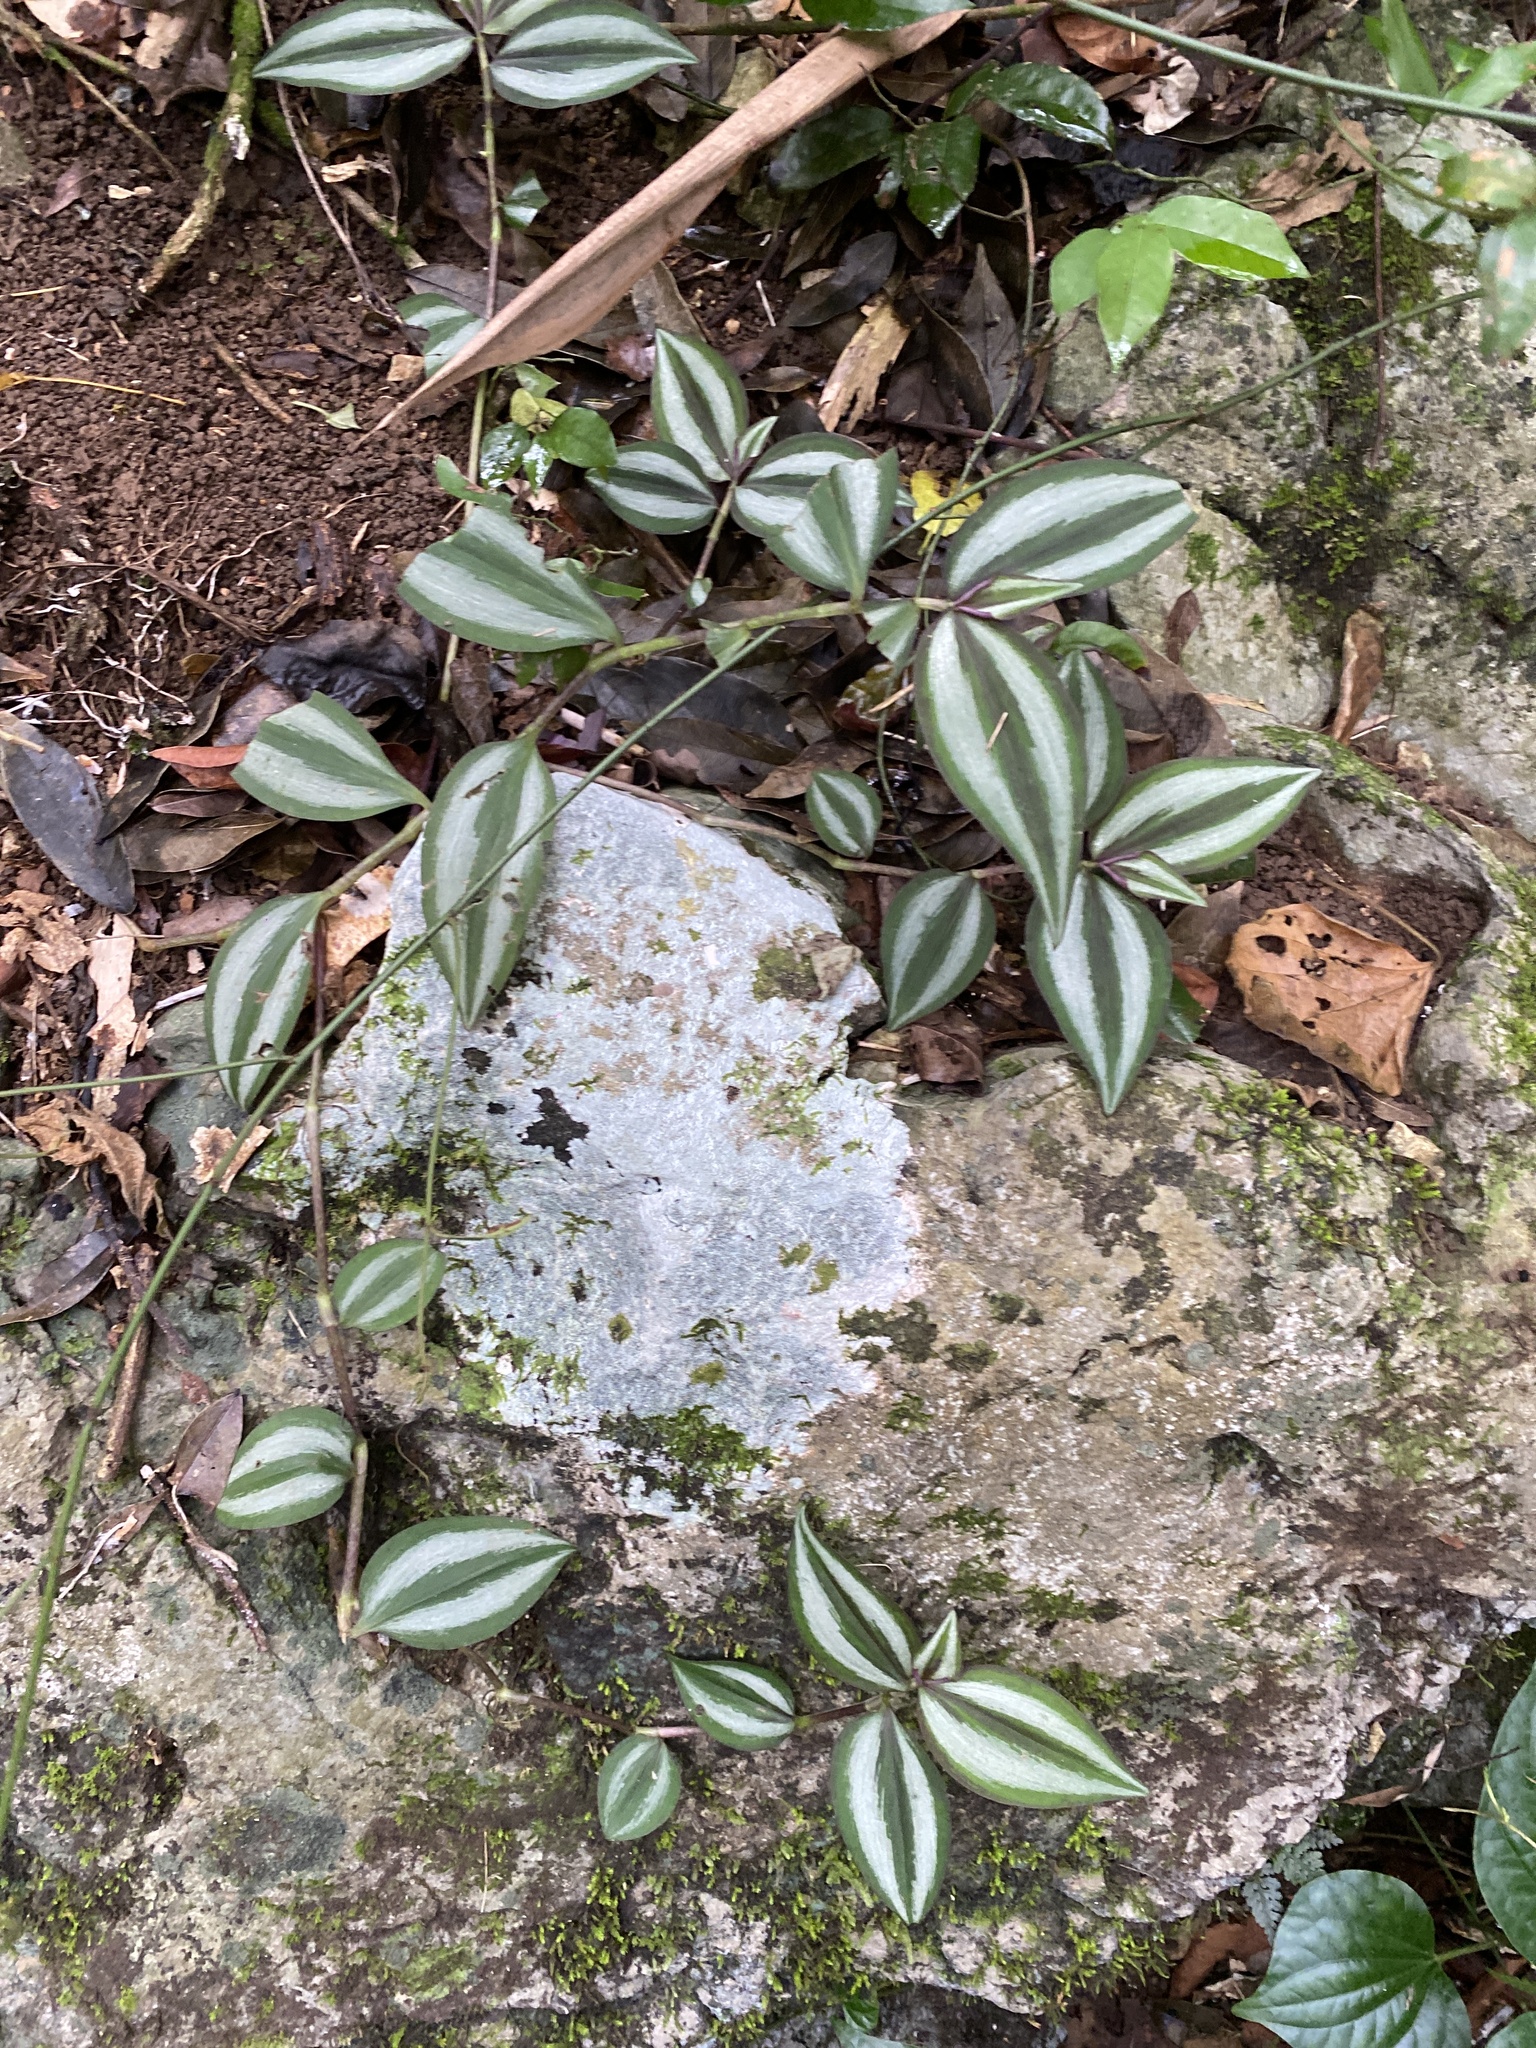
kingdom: Plantae
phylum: Tracheophyta
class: Liliopsida
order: Commelinales
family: Commelinaceae
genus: Tradescantia
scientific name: Tradescantia zebrina
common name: Inchplant
